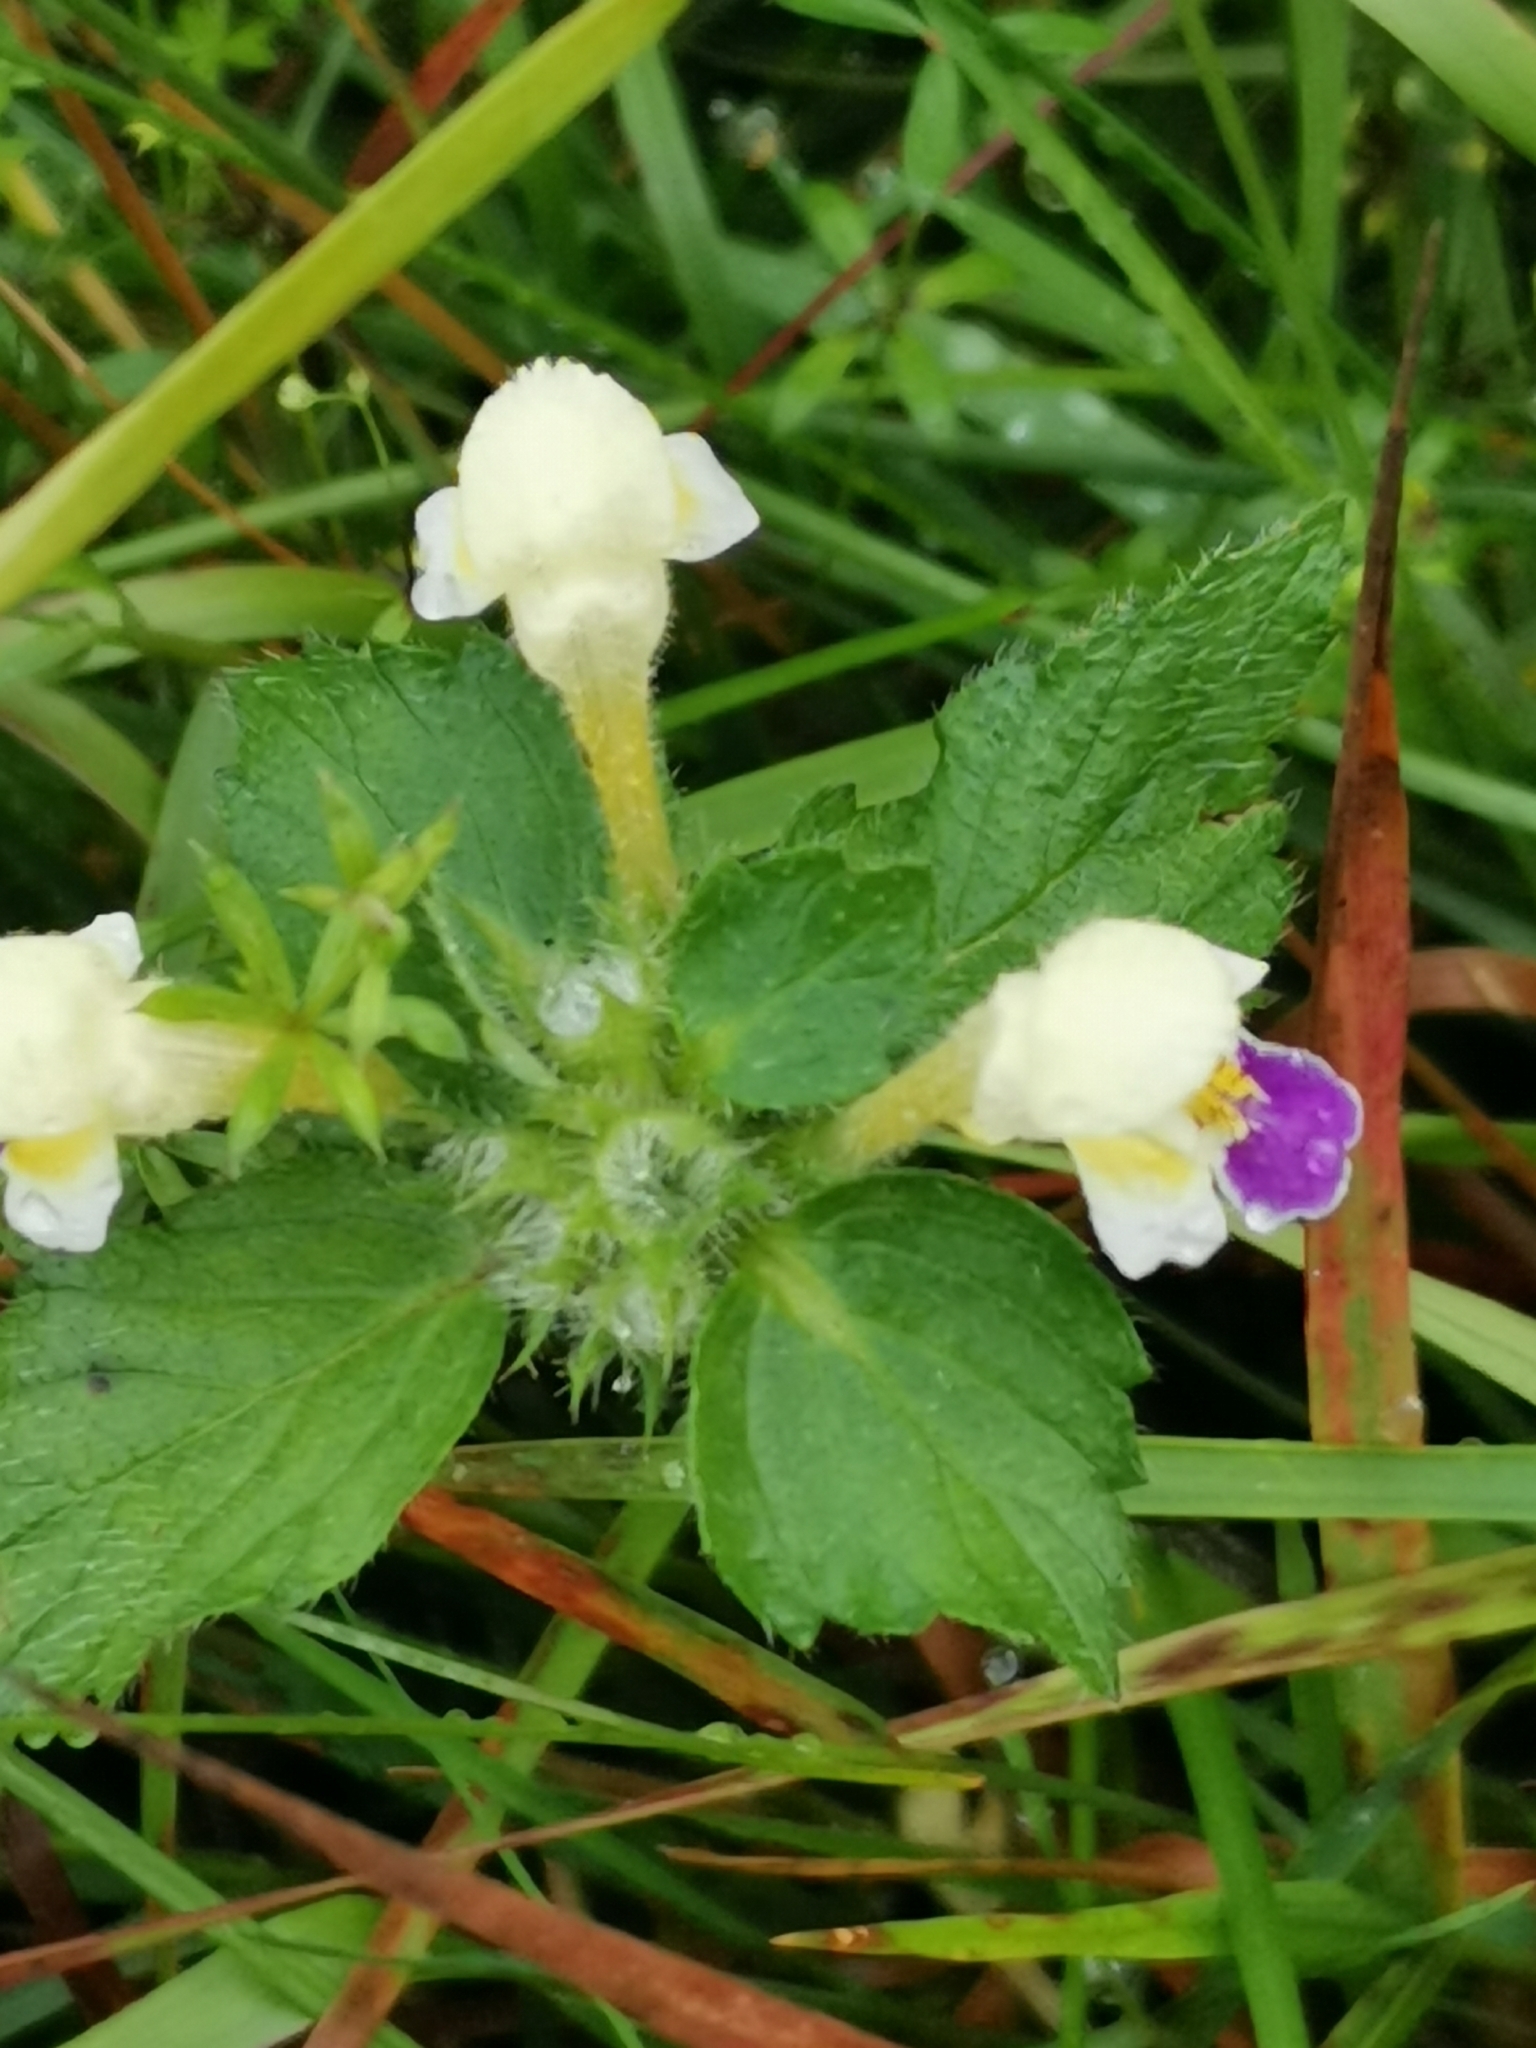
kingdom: Plantae
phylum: Tracheophyta
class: Magnoliopsida
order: Lamiales
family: Lamiaceae
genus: Galeopsis
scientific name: Galeopsis speciosa
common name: Large-flowered hemp-nettle
